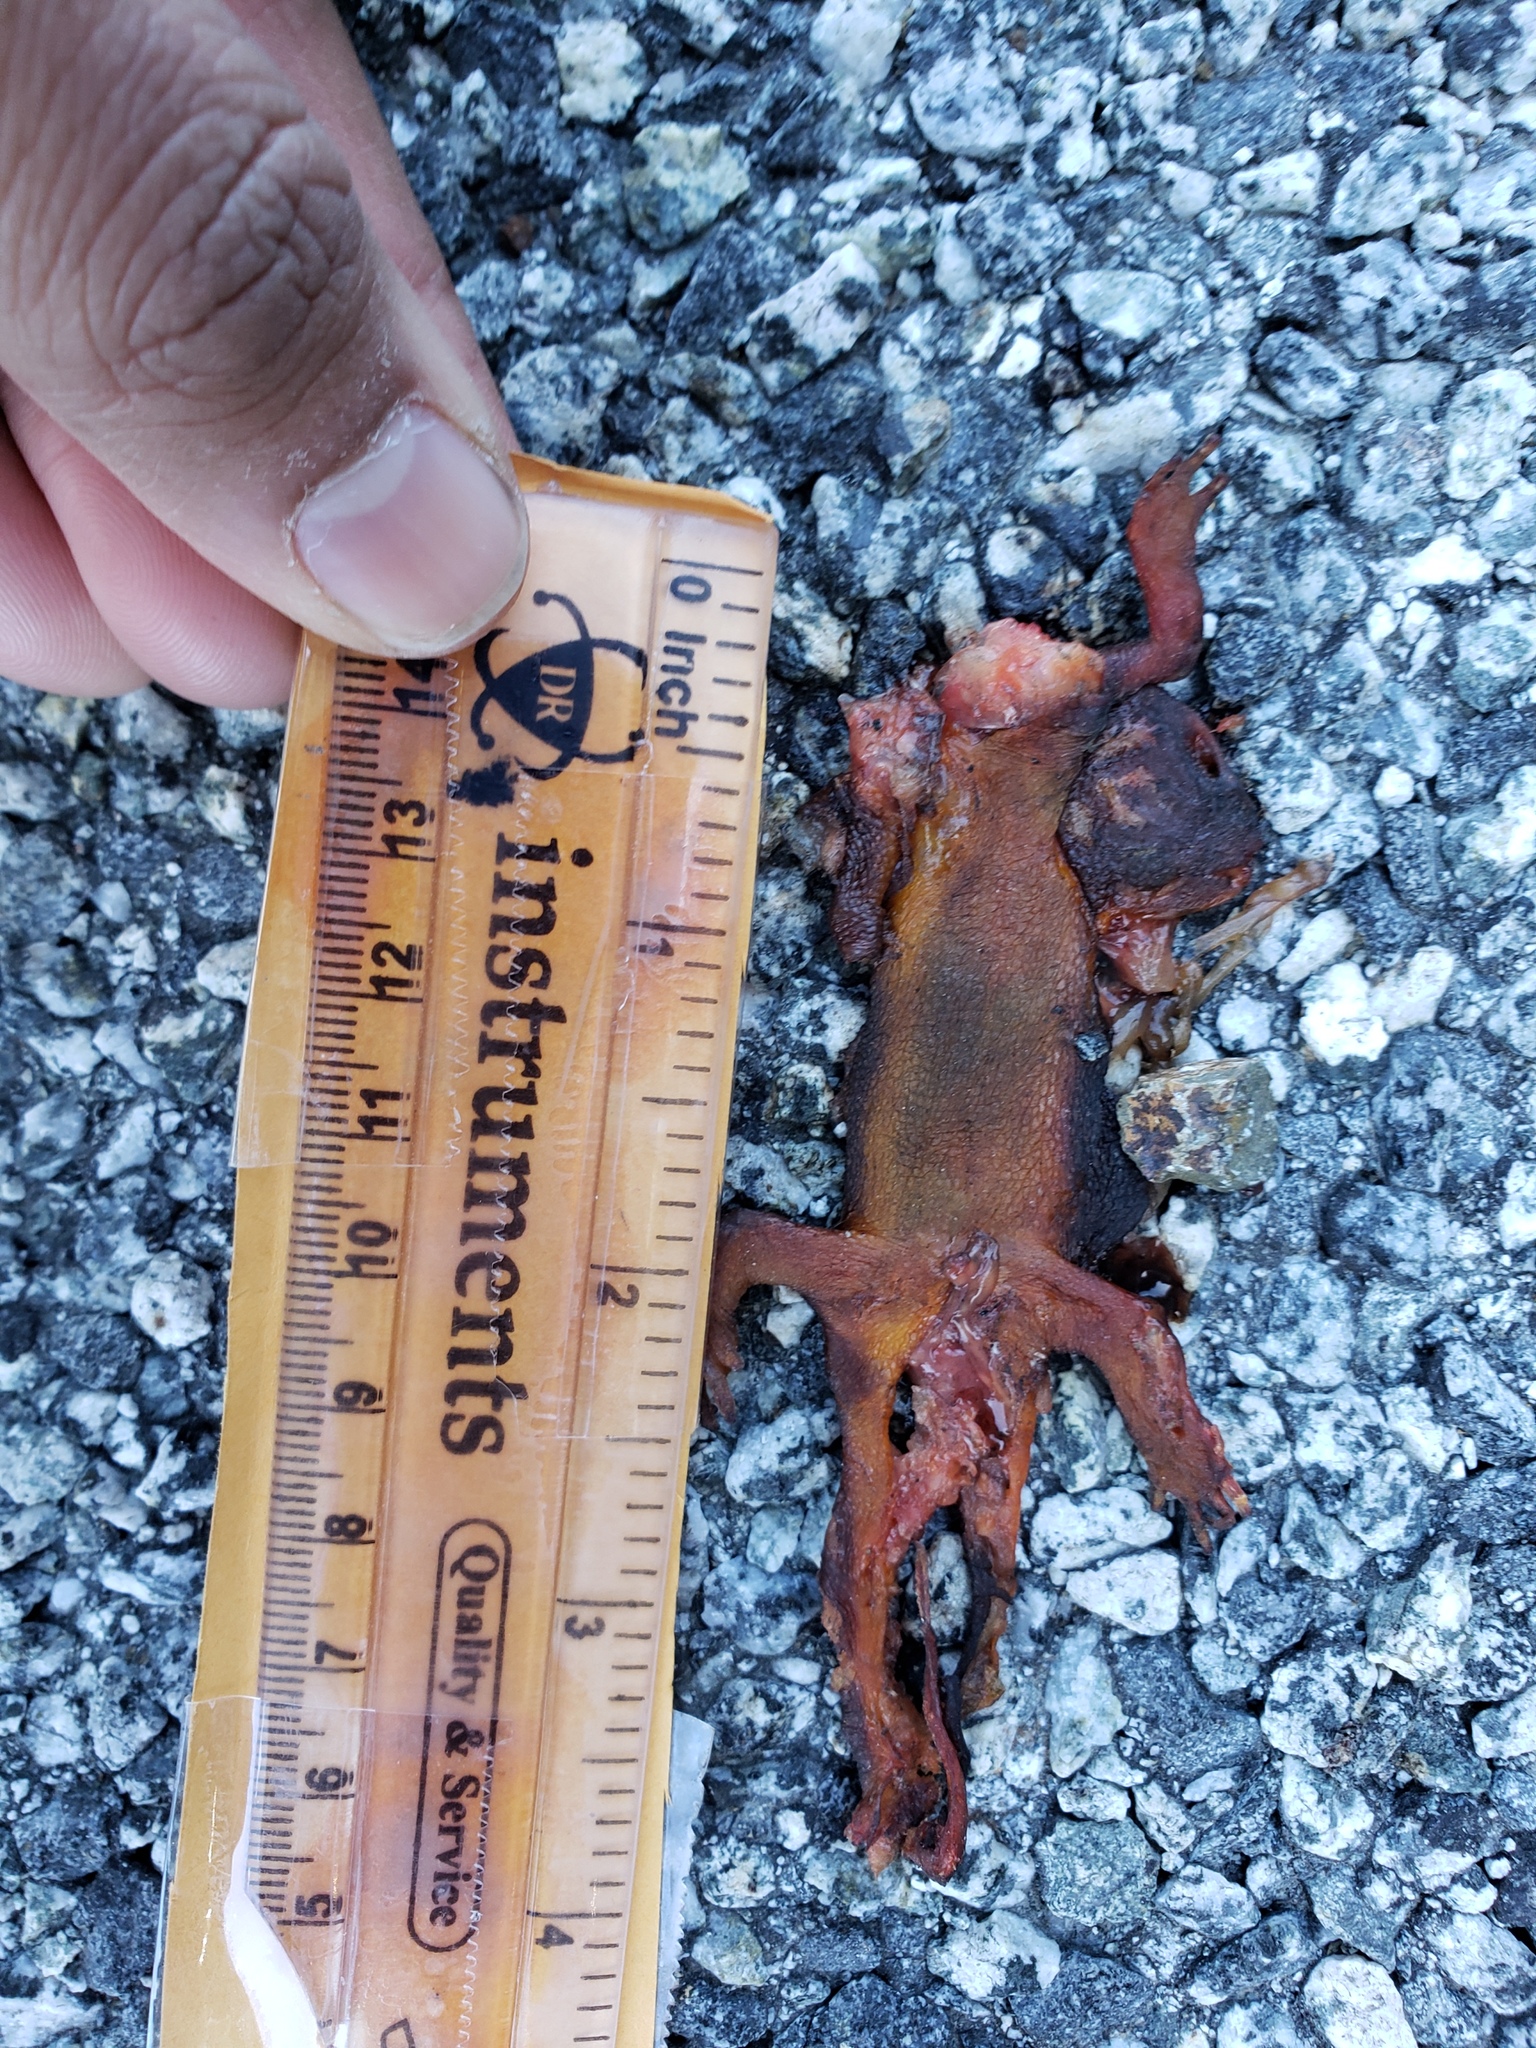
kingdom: Animalia
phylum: Chordata
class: Amphibia
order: Caudata
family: Salamandridae
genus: Taricha
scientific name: Taricha
